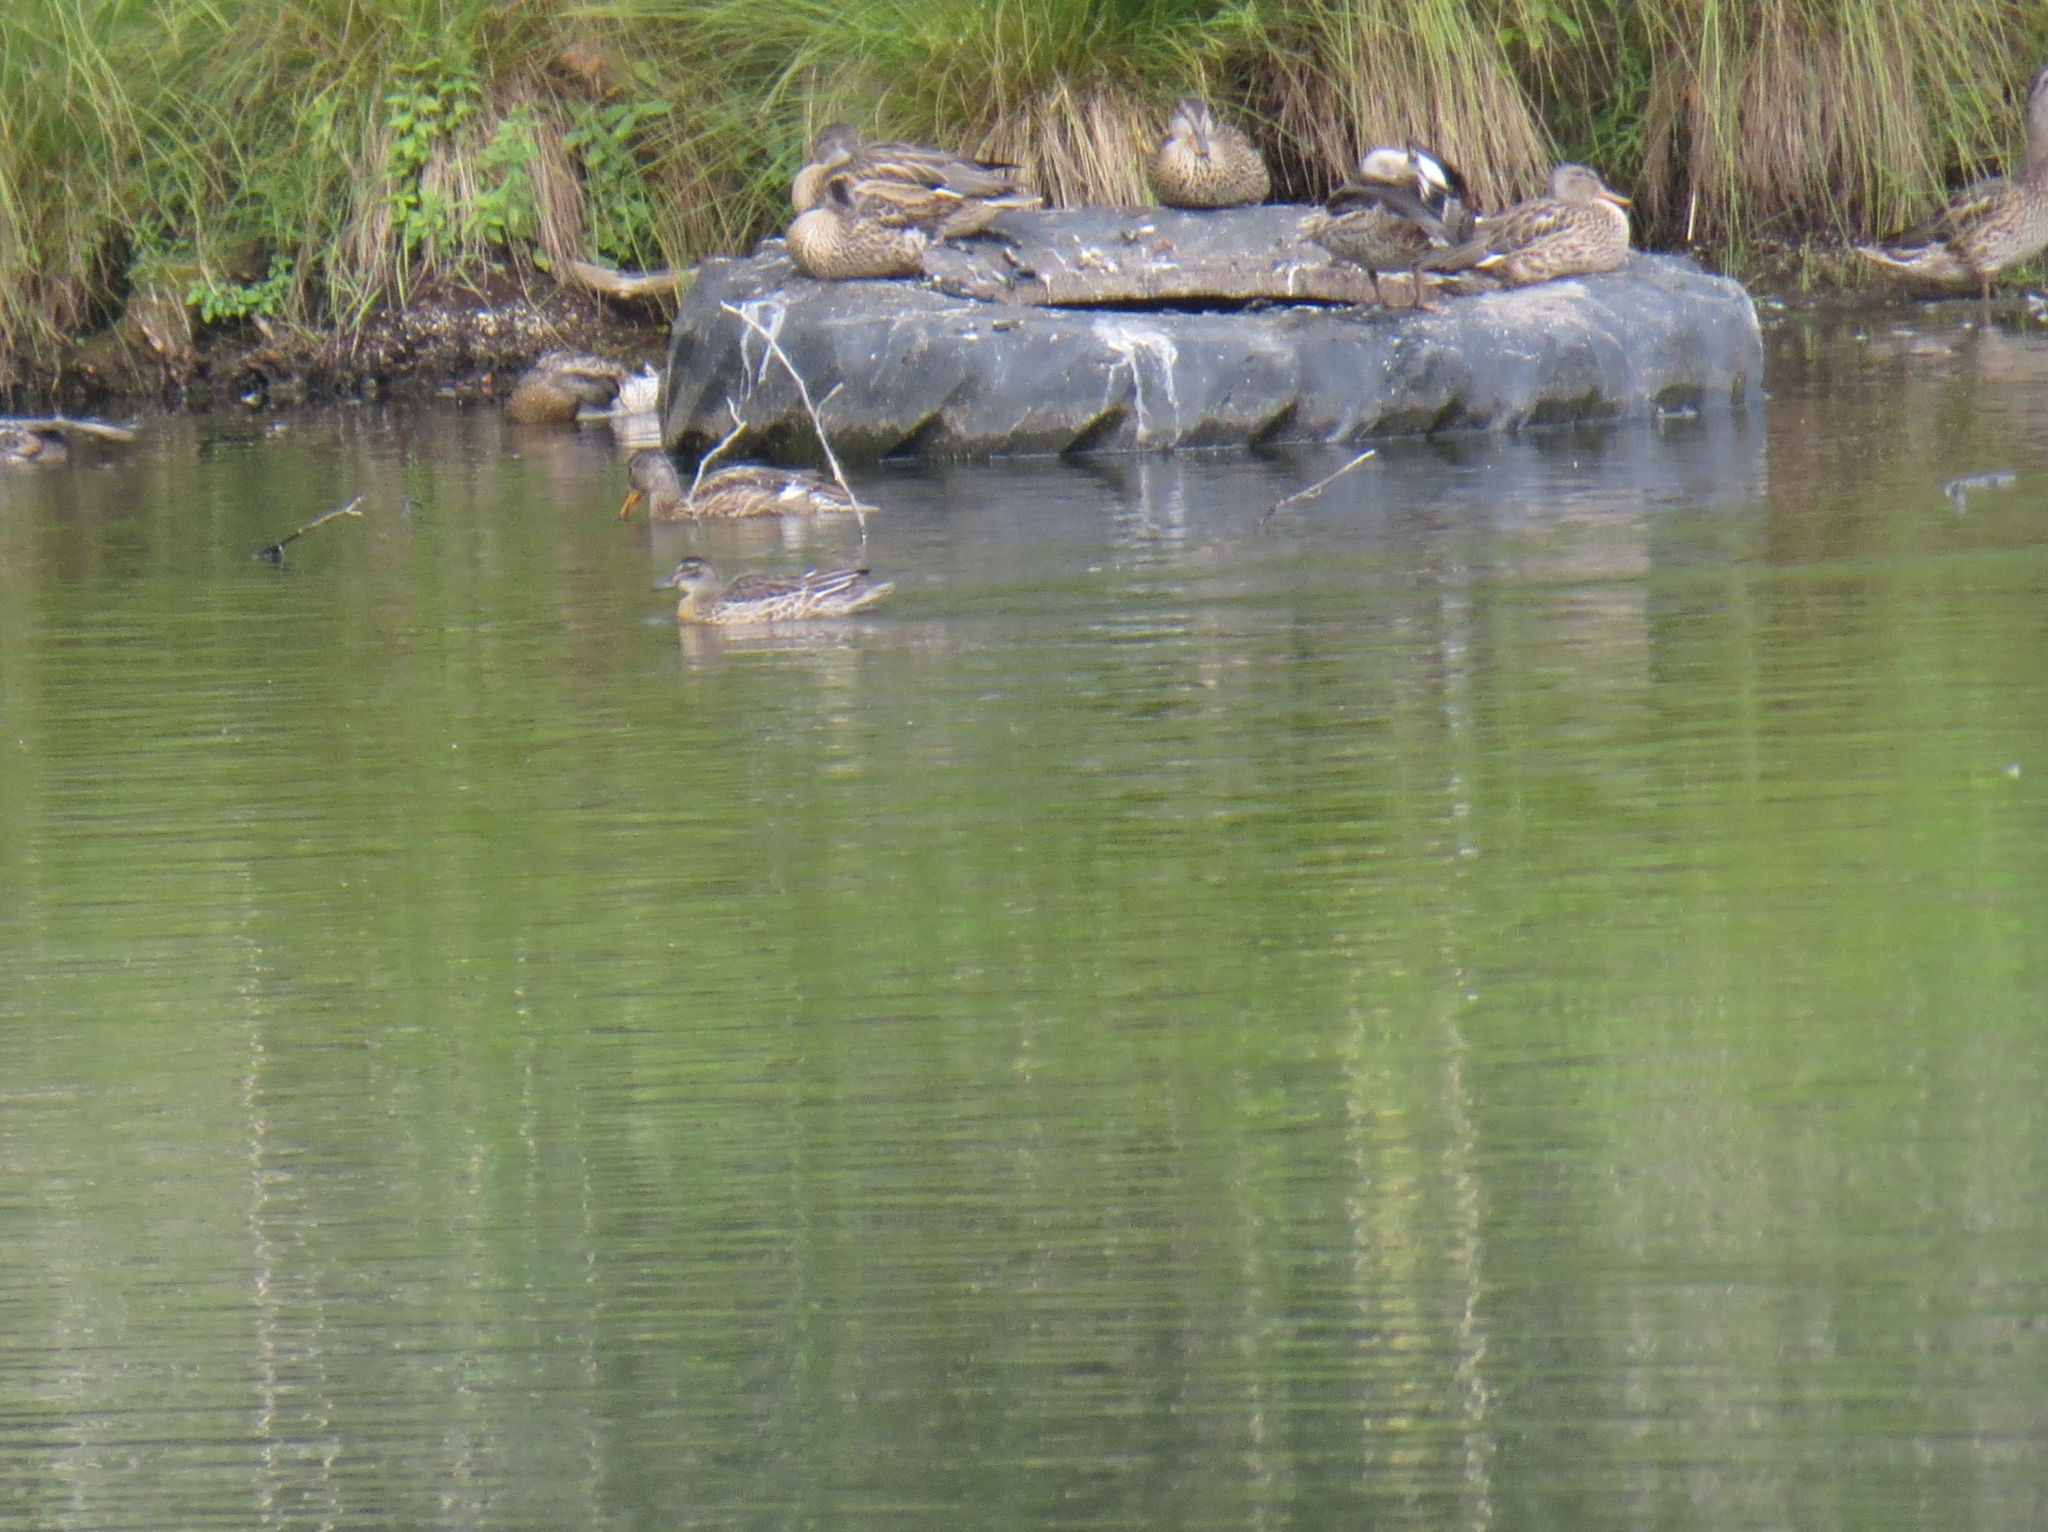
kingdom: Animalia
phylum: Chordata
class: Aves
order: Anseriformes
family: Anatidae
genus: Spatula
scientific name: Spatula querquedula
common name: Garganey
